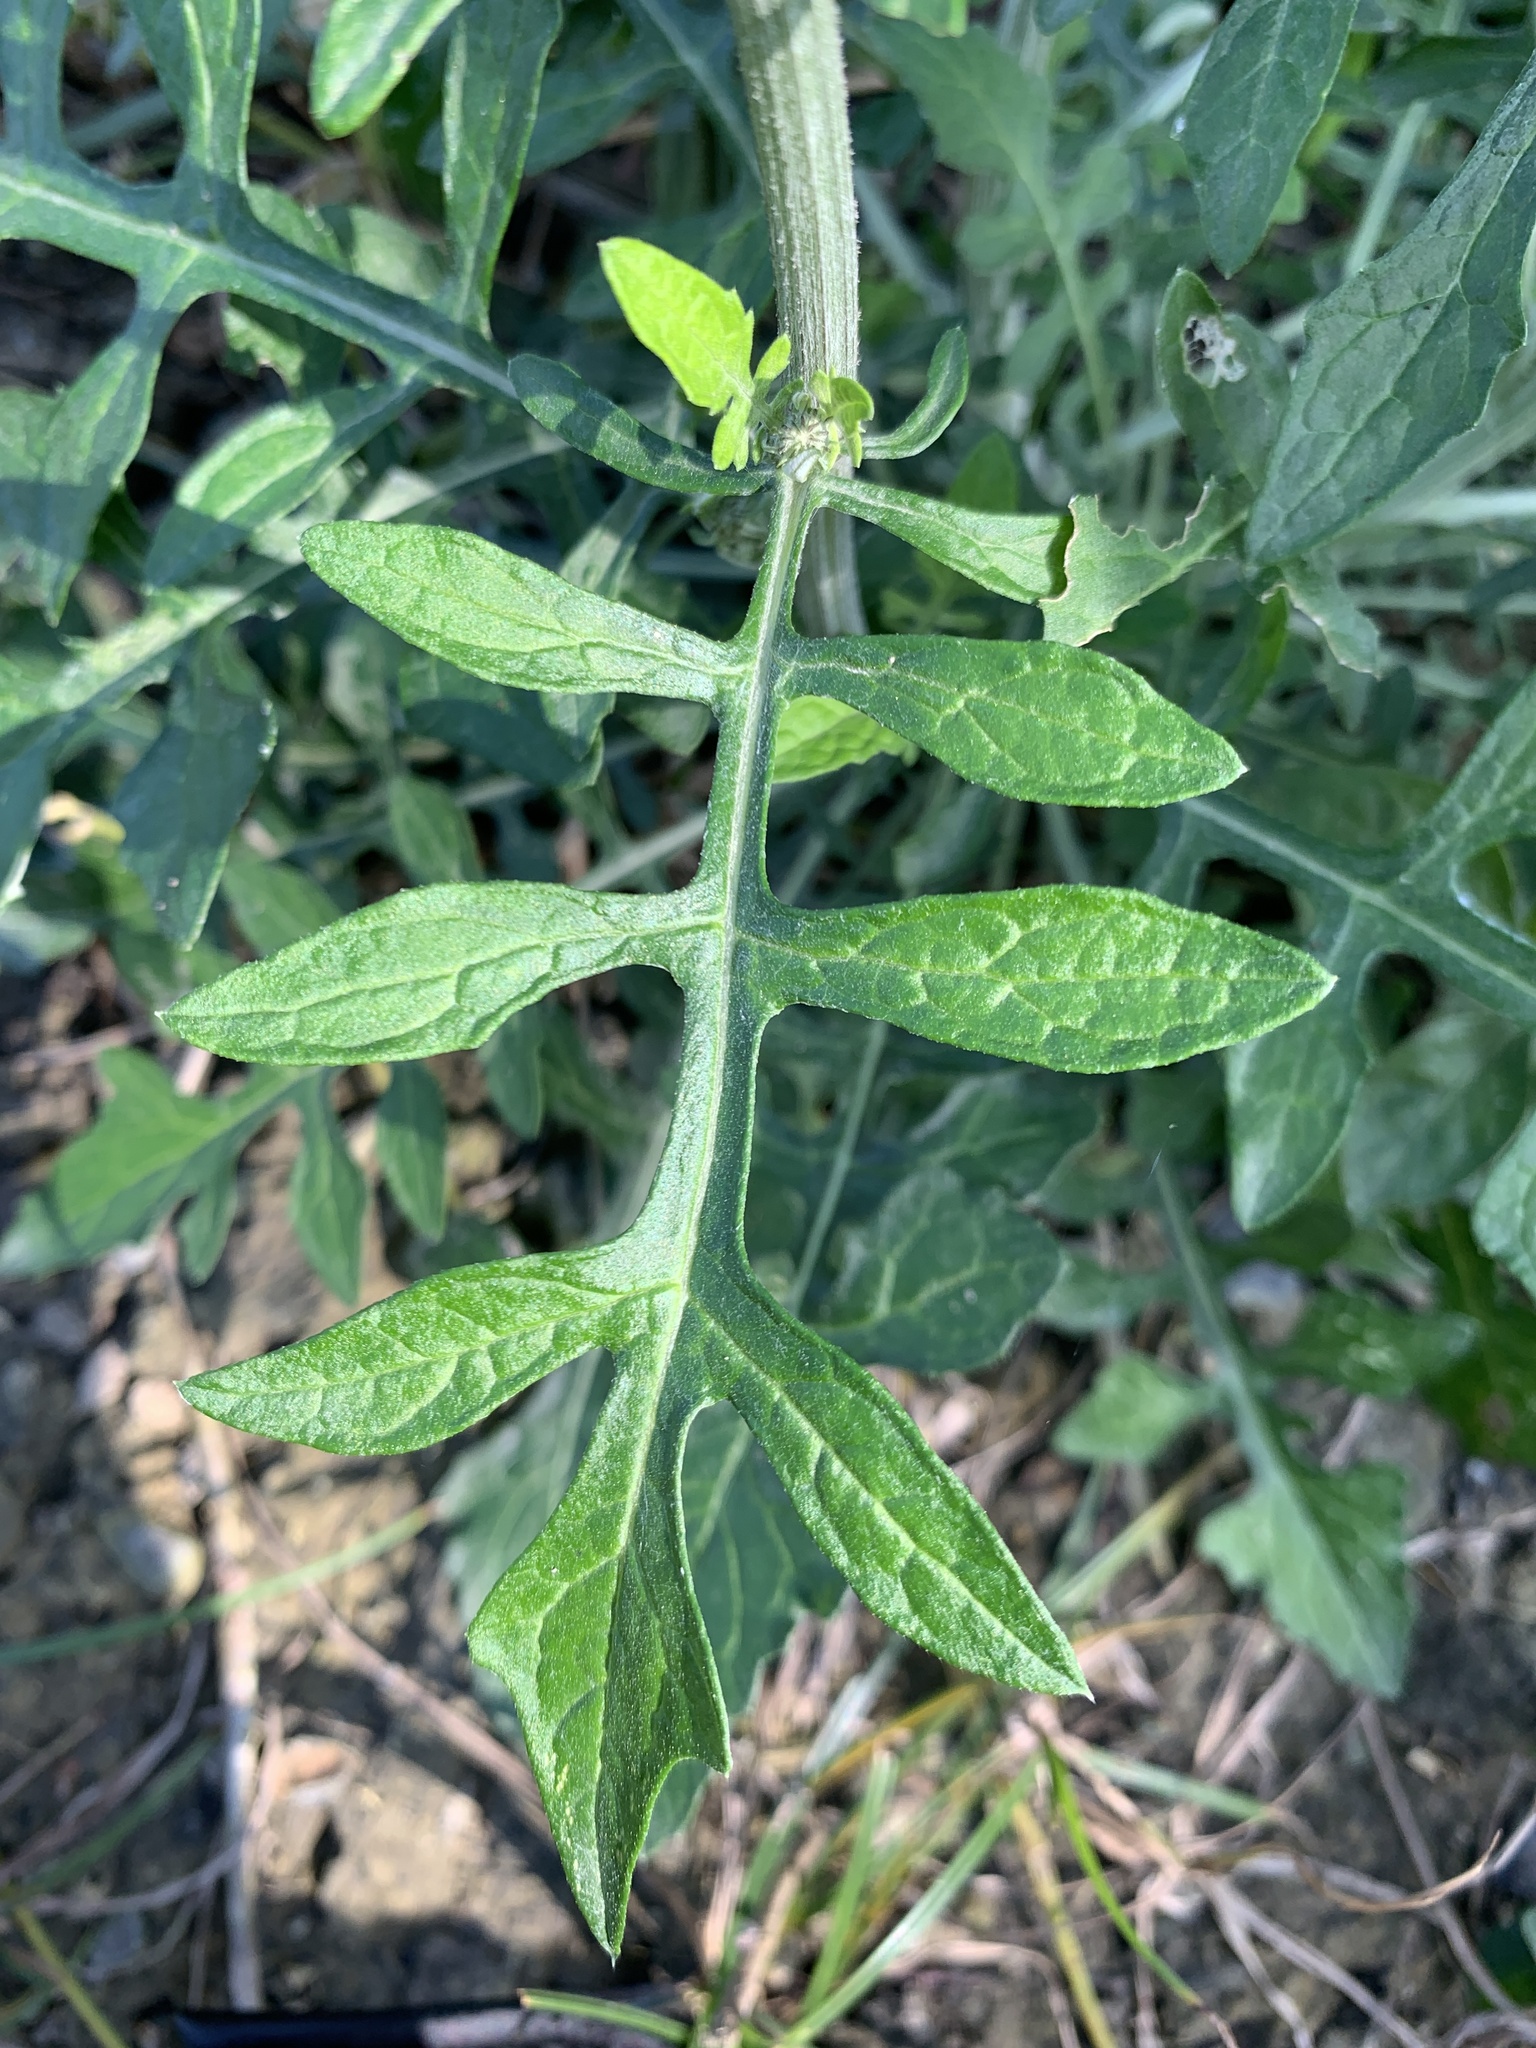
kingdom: Plantae
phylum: Tracheophyta
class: Magnoliopsida
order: Asterales
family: Asteraceae
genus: Saussurea
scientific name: Saussurea lyrata
